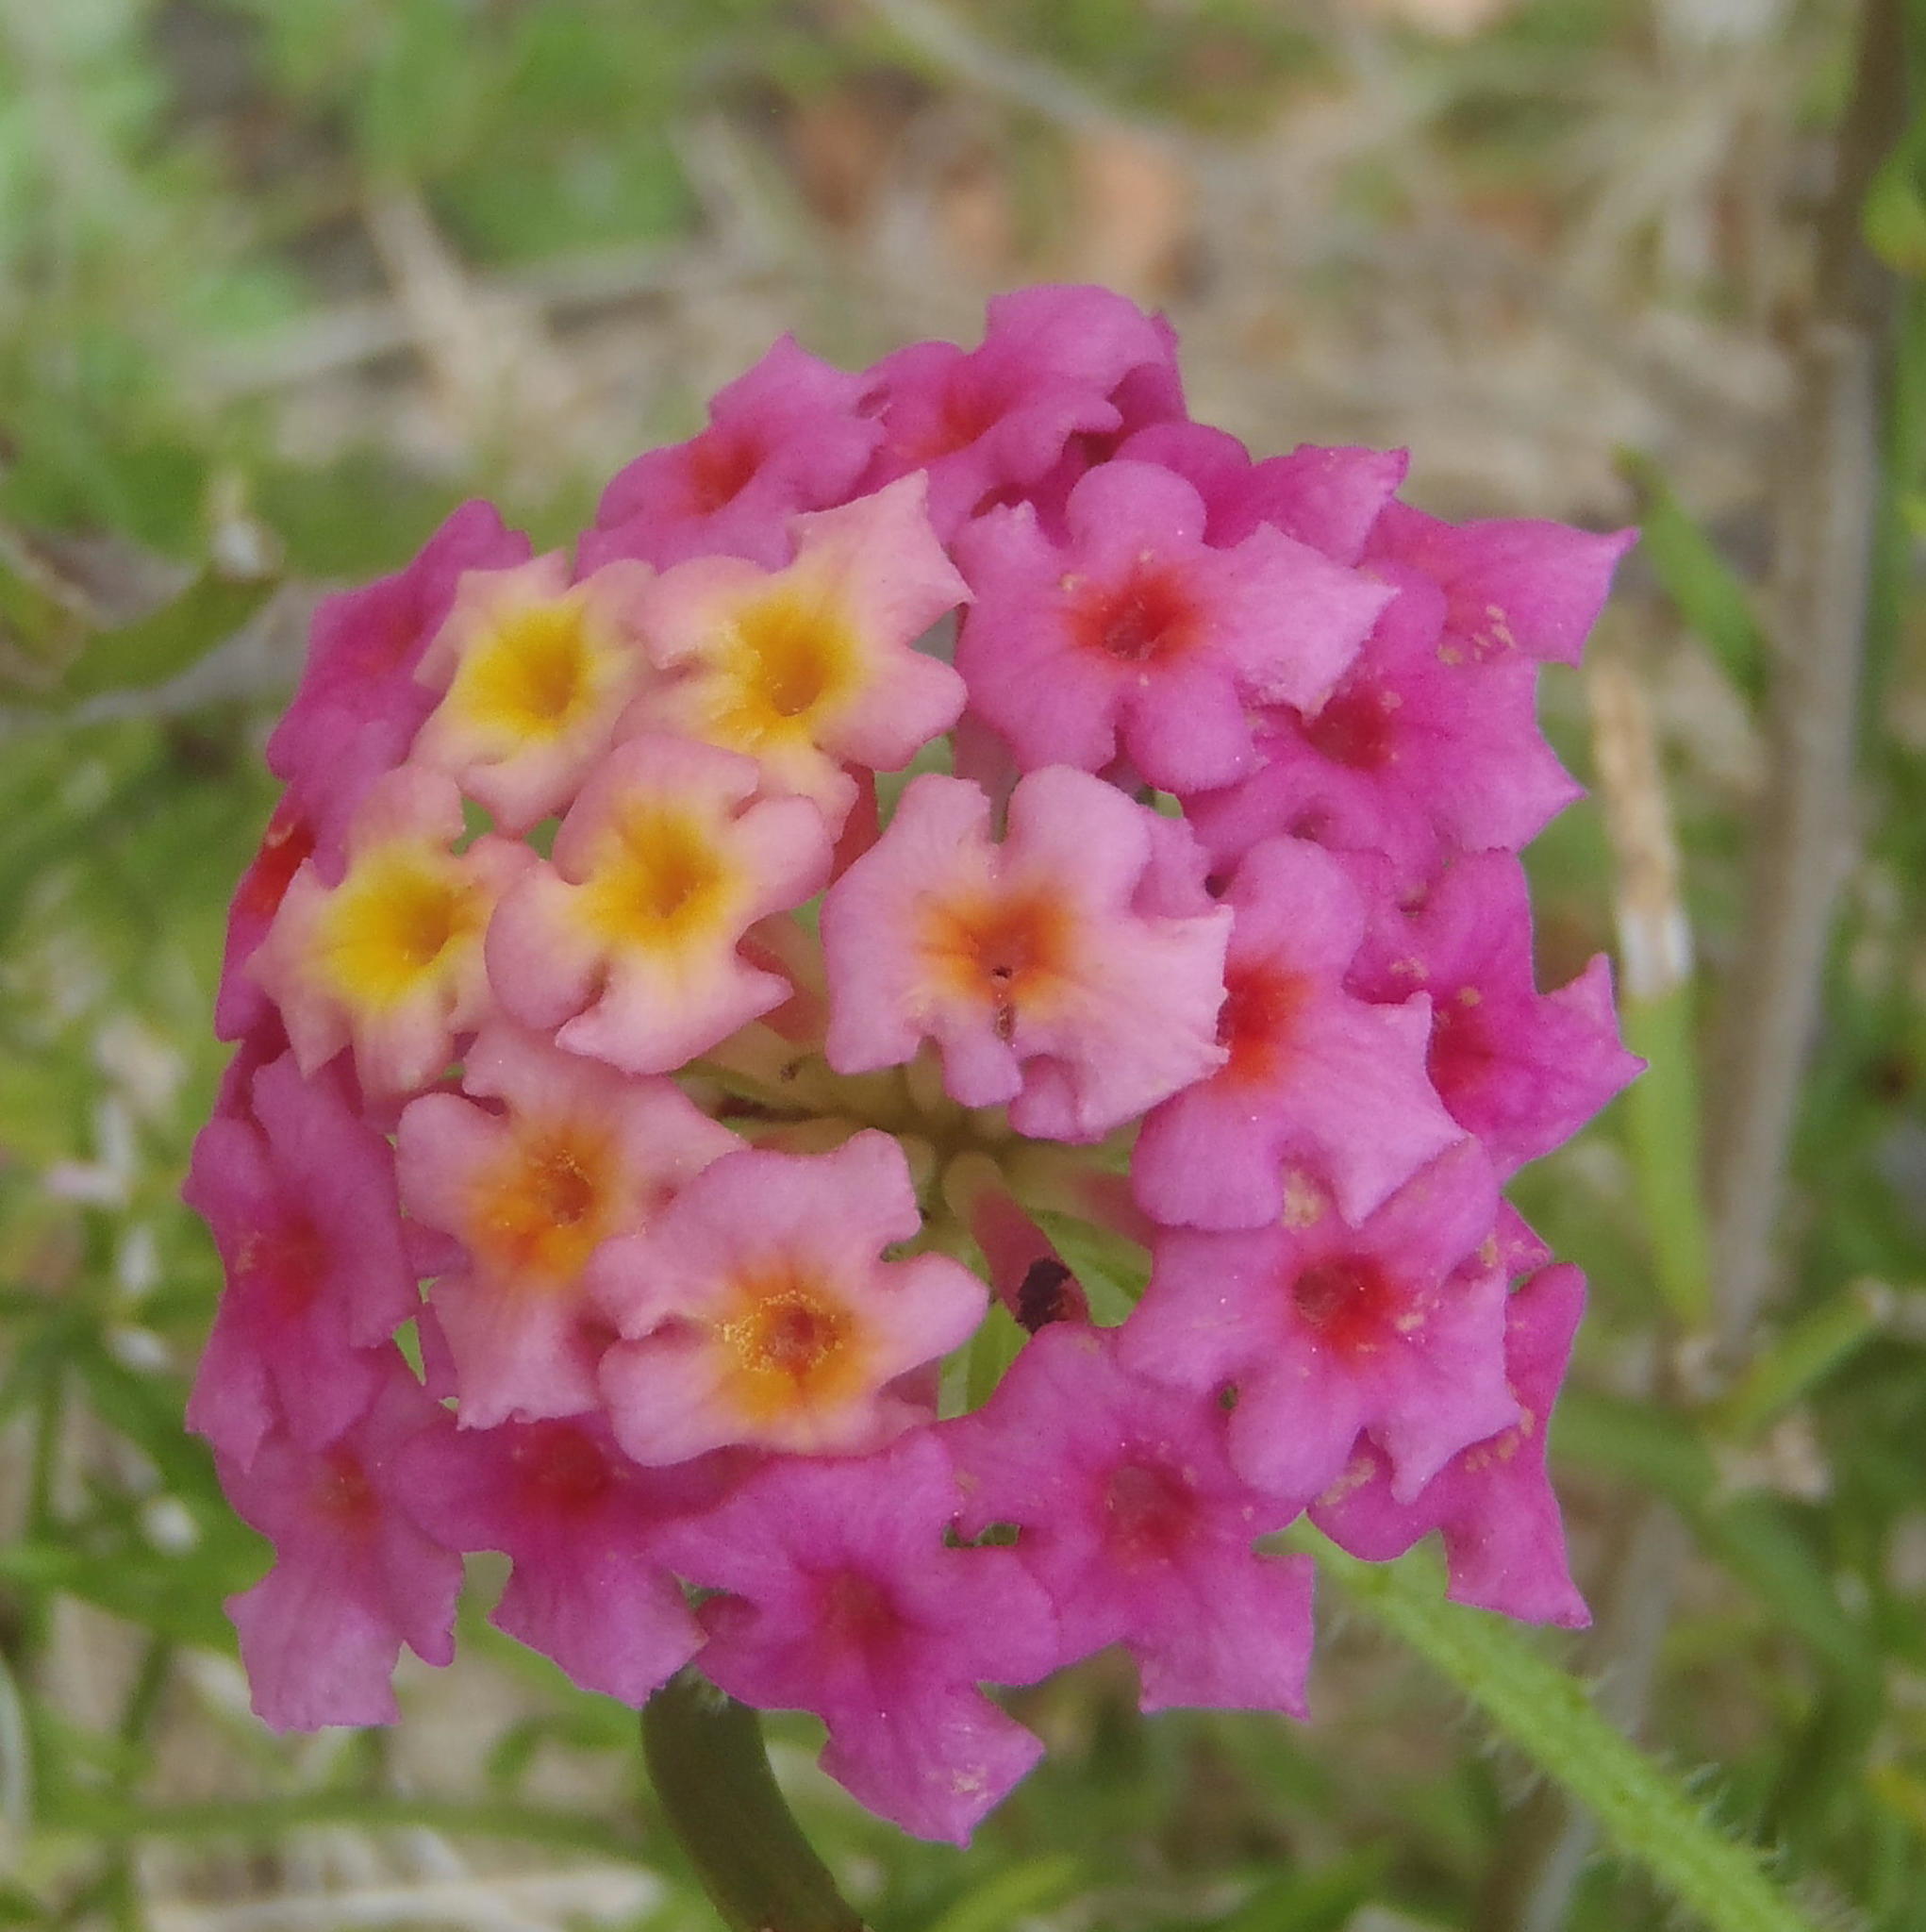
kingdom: Plantae
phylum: Tracheophyta
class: Magnoliopsida
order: Lamiales
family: Verbenaceae
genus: Lantana
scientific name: Lantana camara
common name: Lantana
